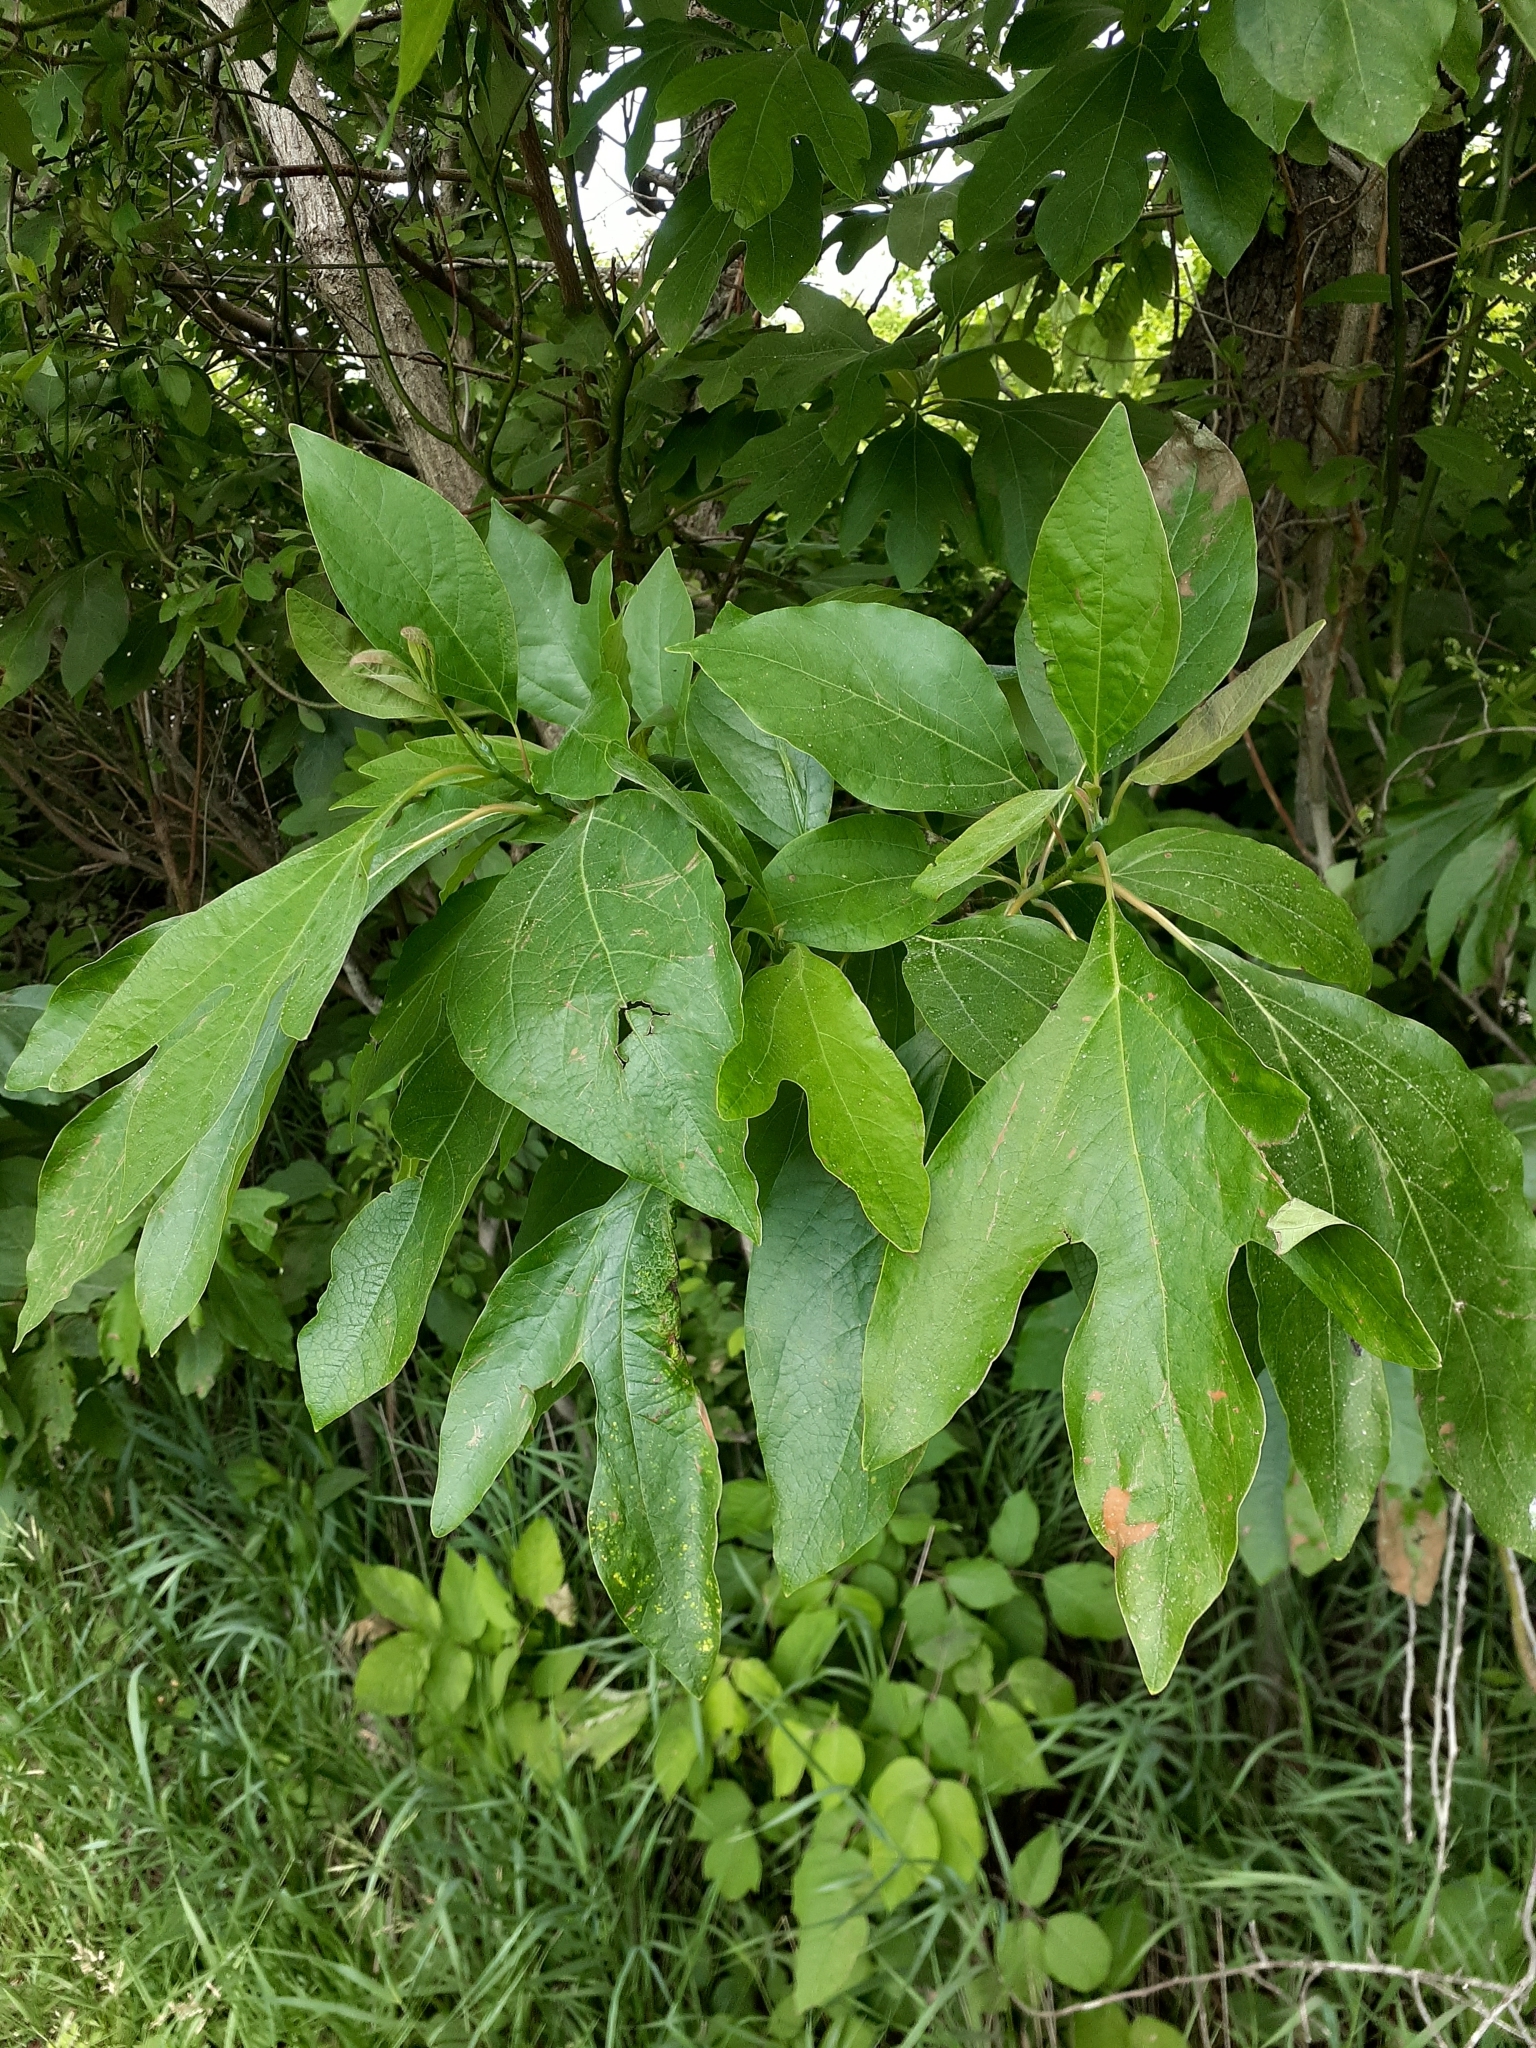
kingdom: Plantae
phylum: Tracheophyta
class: Magnoliopsida
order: Laurales
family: Lauraceae
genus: Sassafras
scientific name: Sassafras albidum
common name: Sassafras
